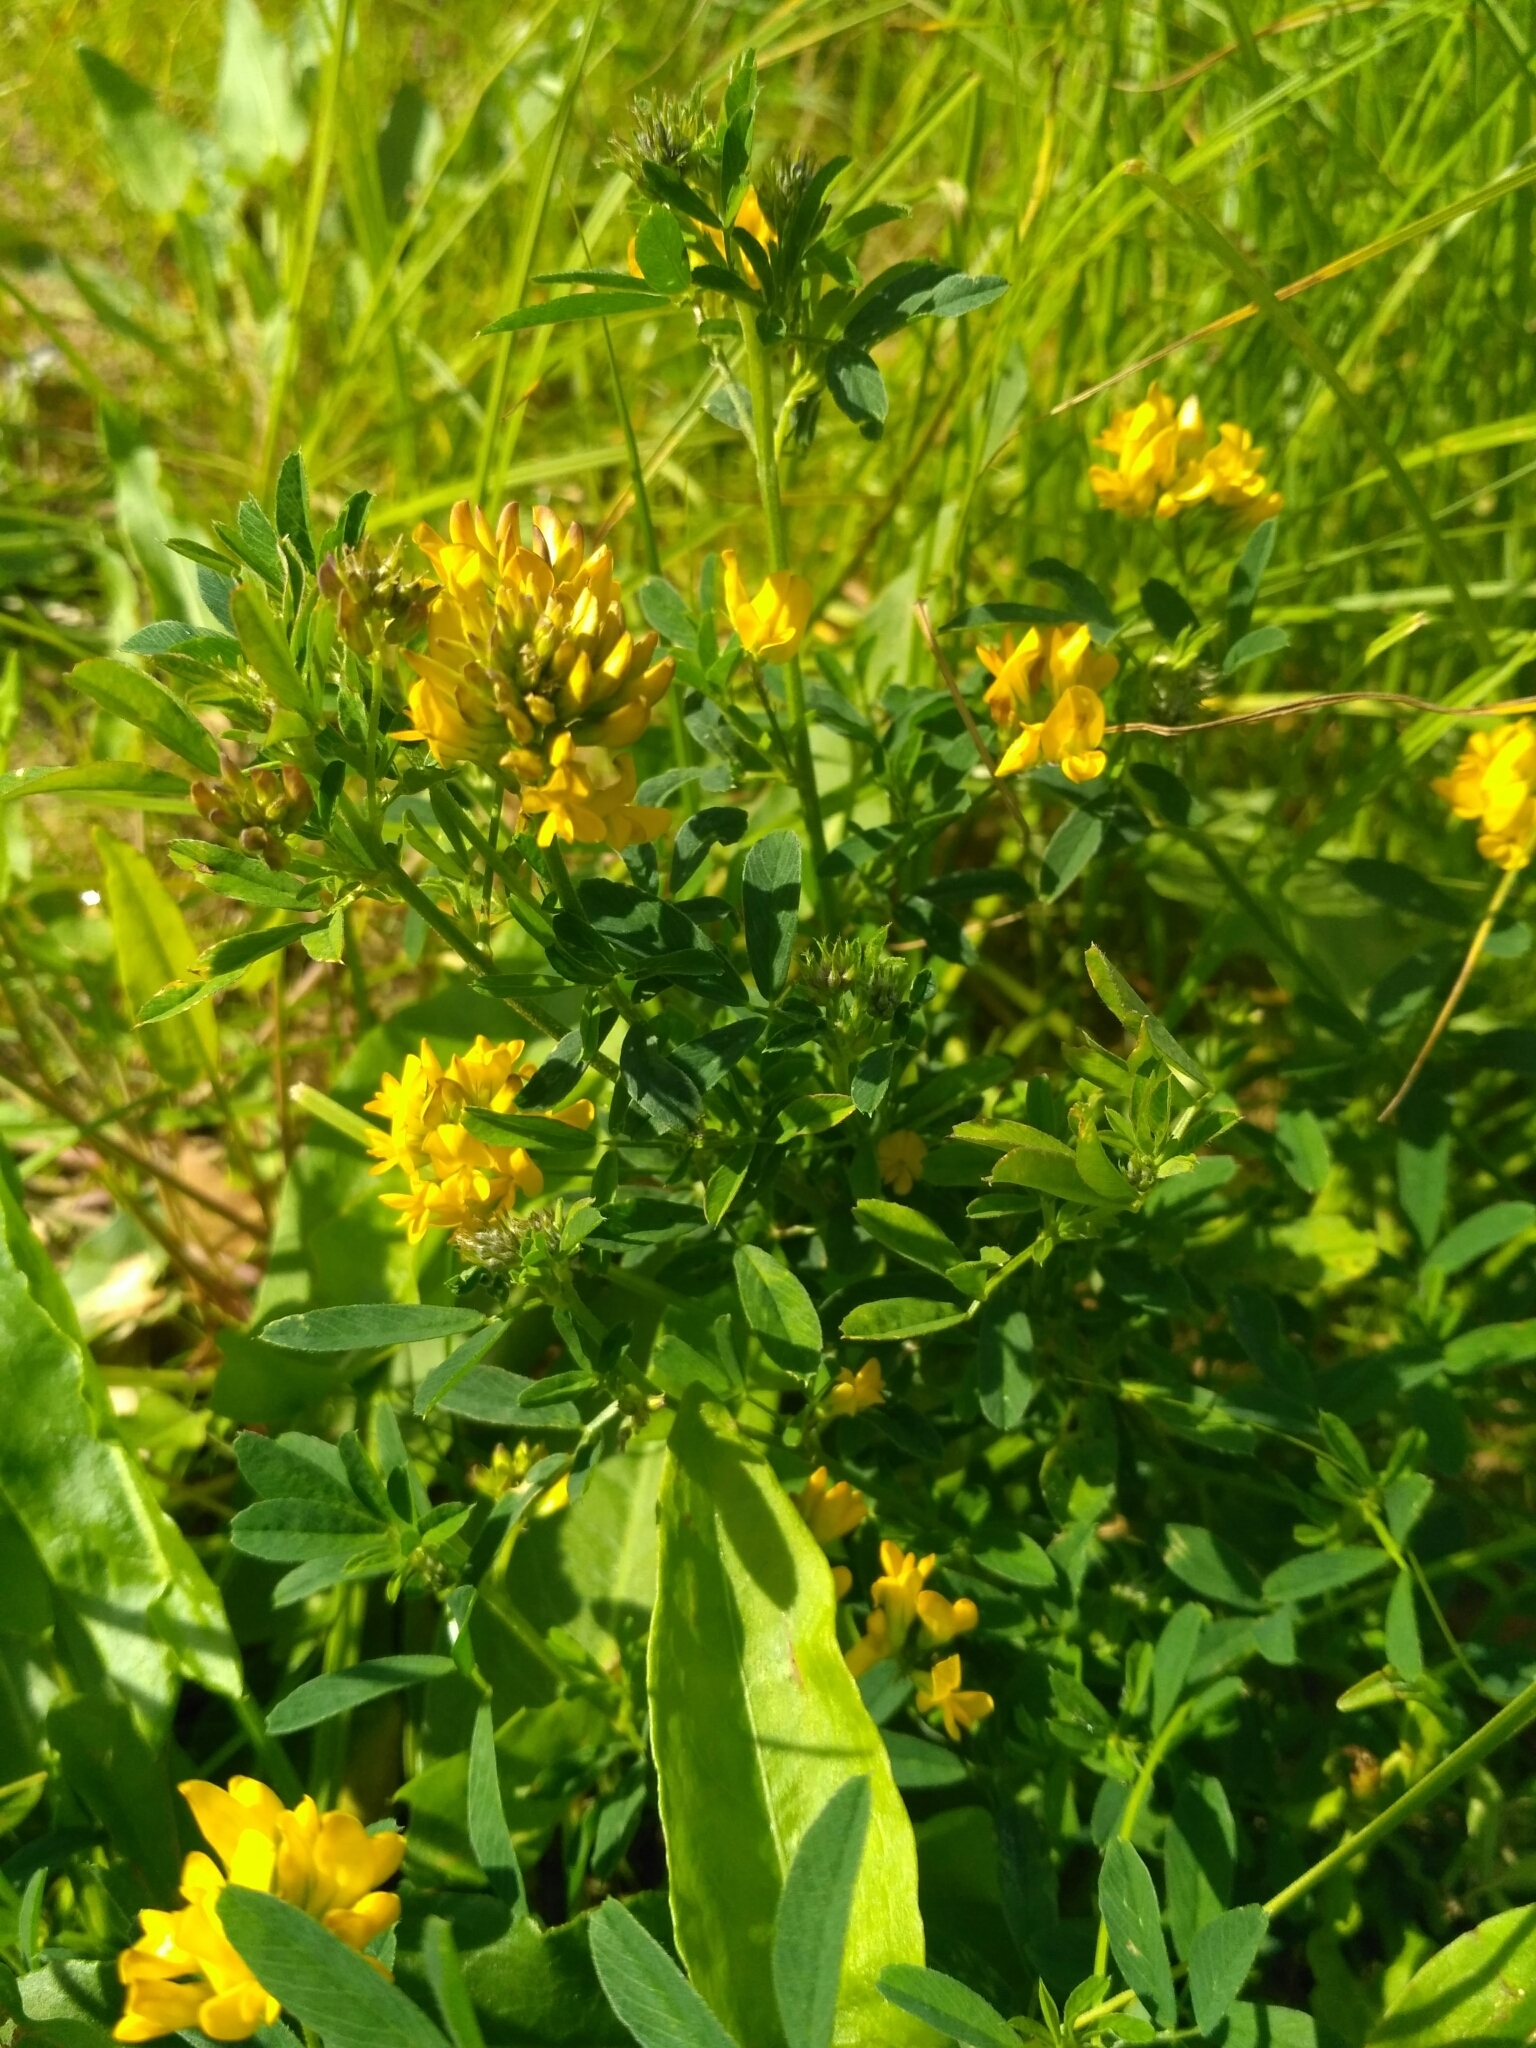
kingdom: Plantae
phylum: Tracheophyta
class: Magnoliopsida
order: Fabales
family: Fabaceae
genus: Medicago
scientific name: Medicago falcata
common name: Sickle medick
